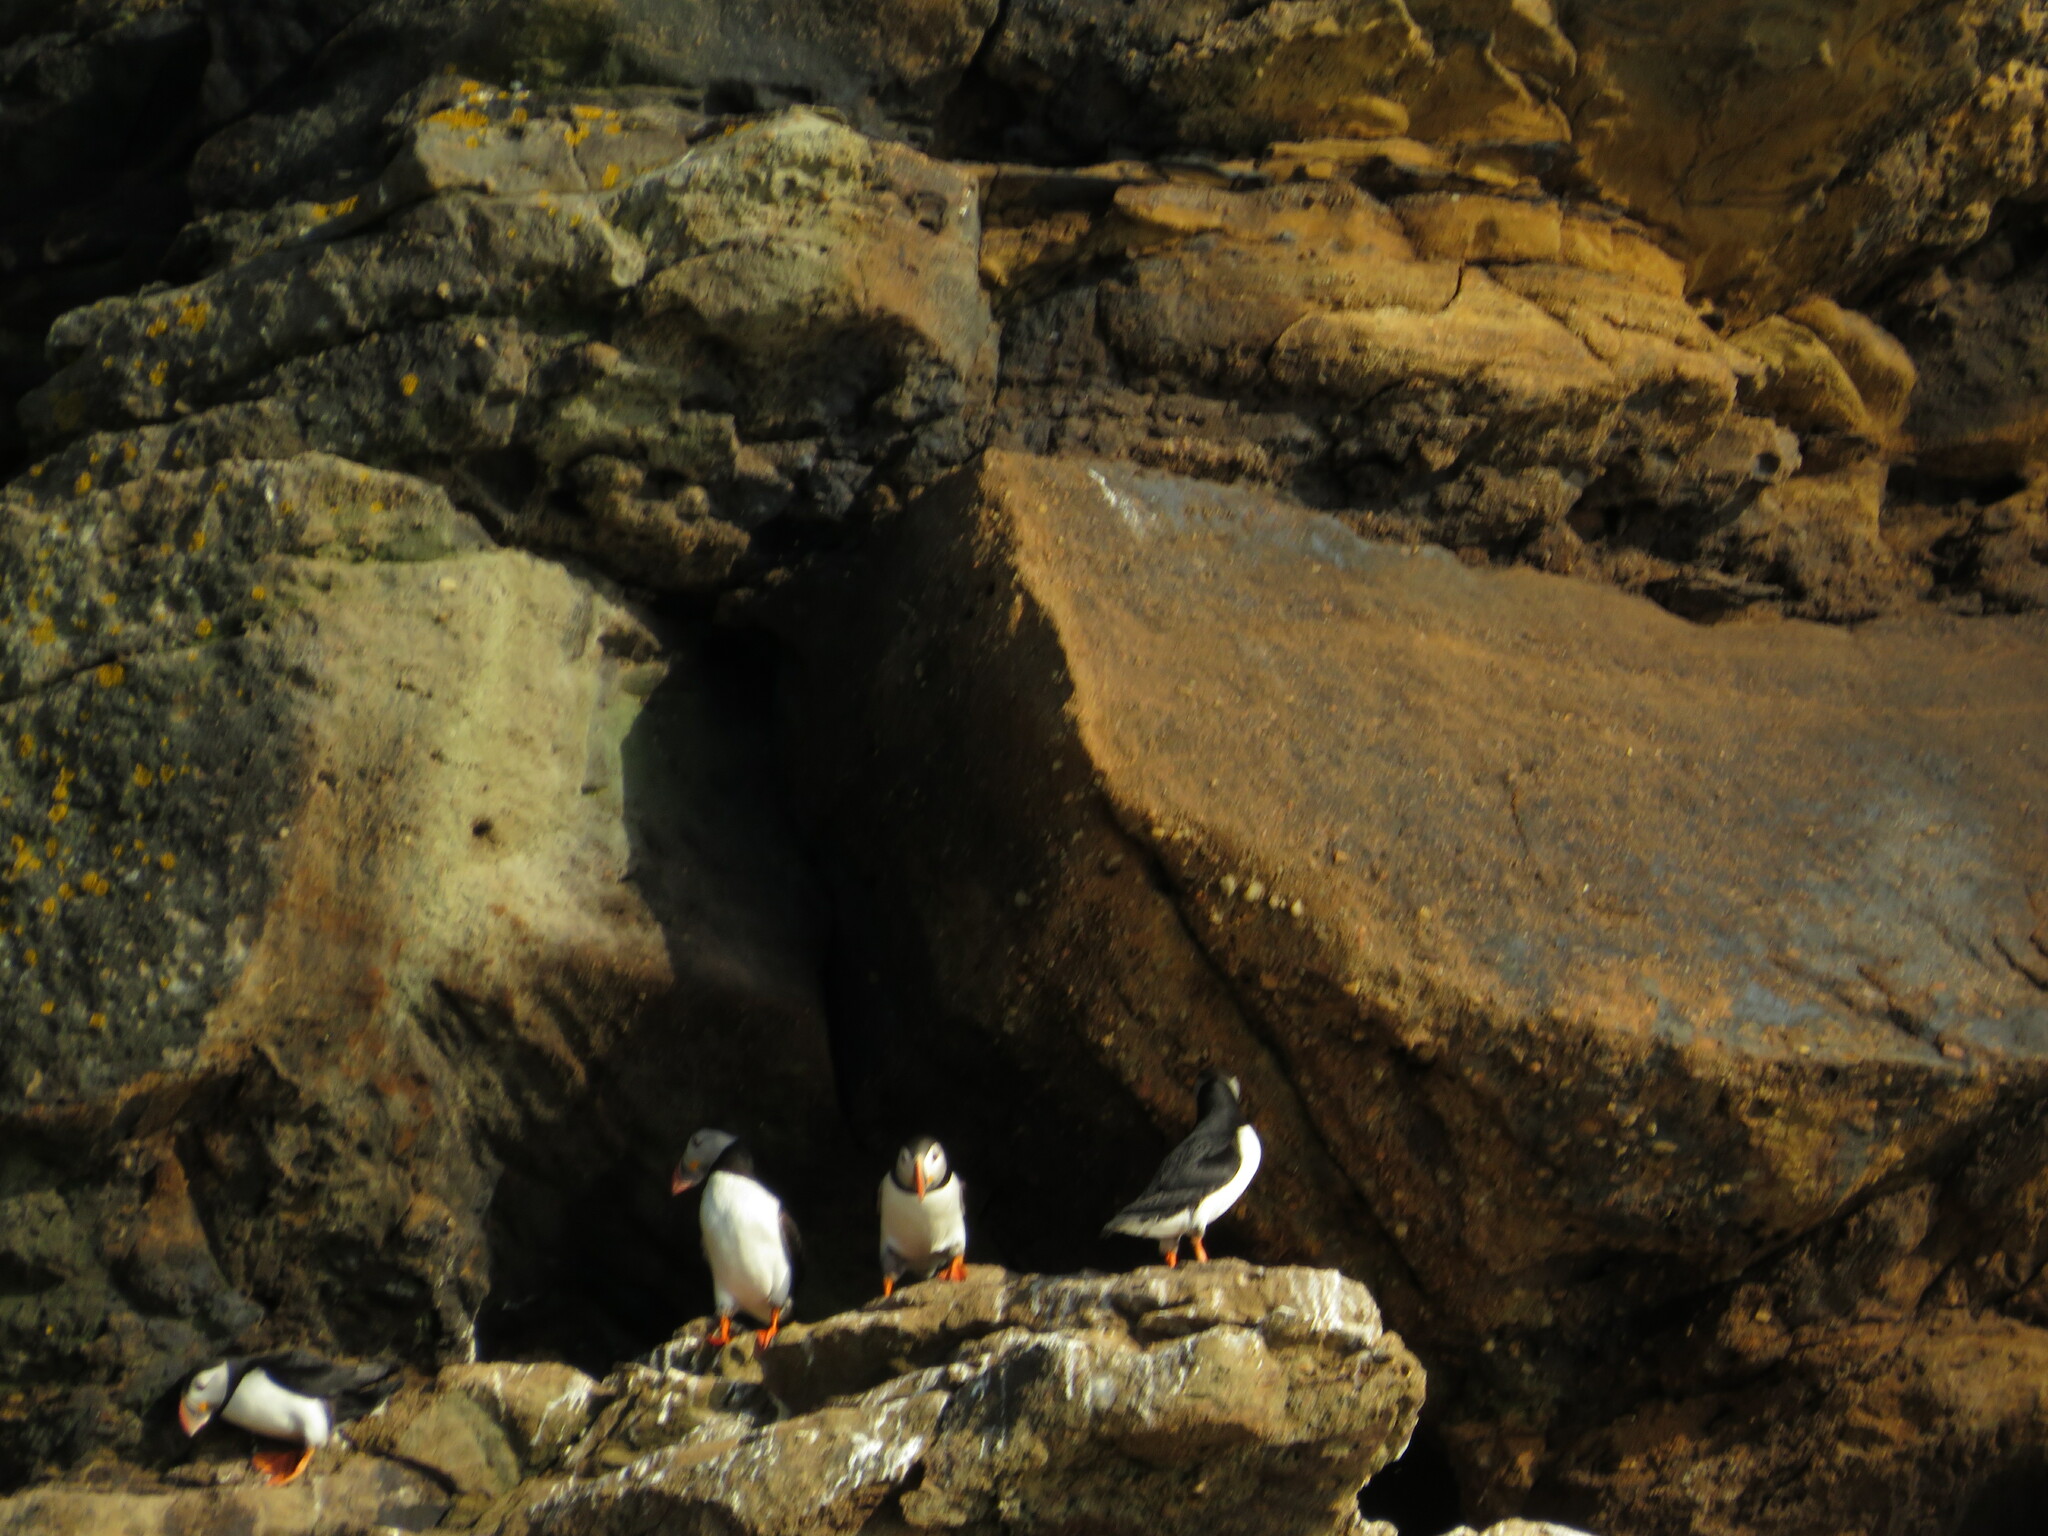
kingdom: Animalia
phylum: Chordata
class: Aves
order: Charadriiformes
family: Alcidae
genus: Fratercula
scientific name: Fratercula arctica
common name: Atlantic puffin
